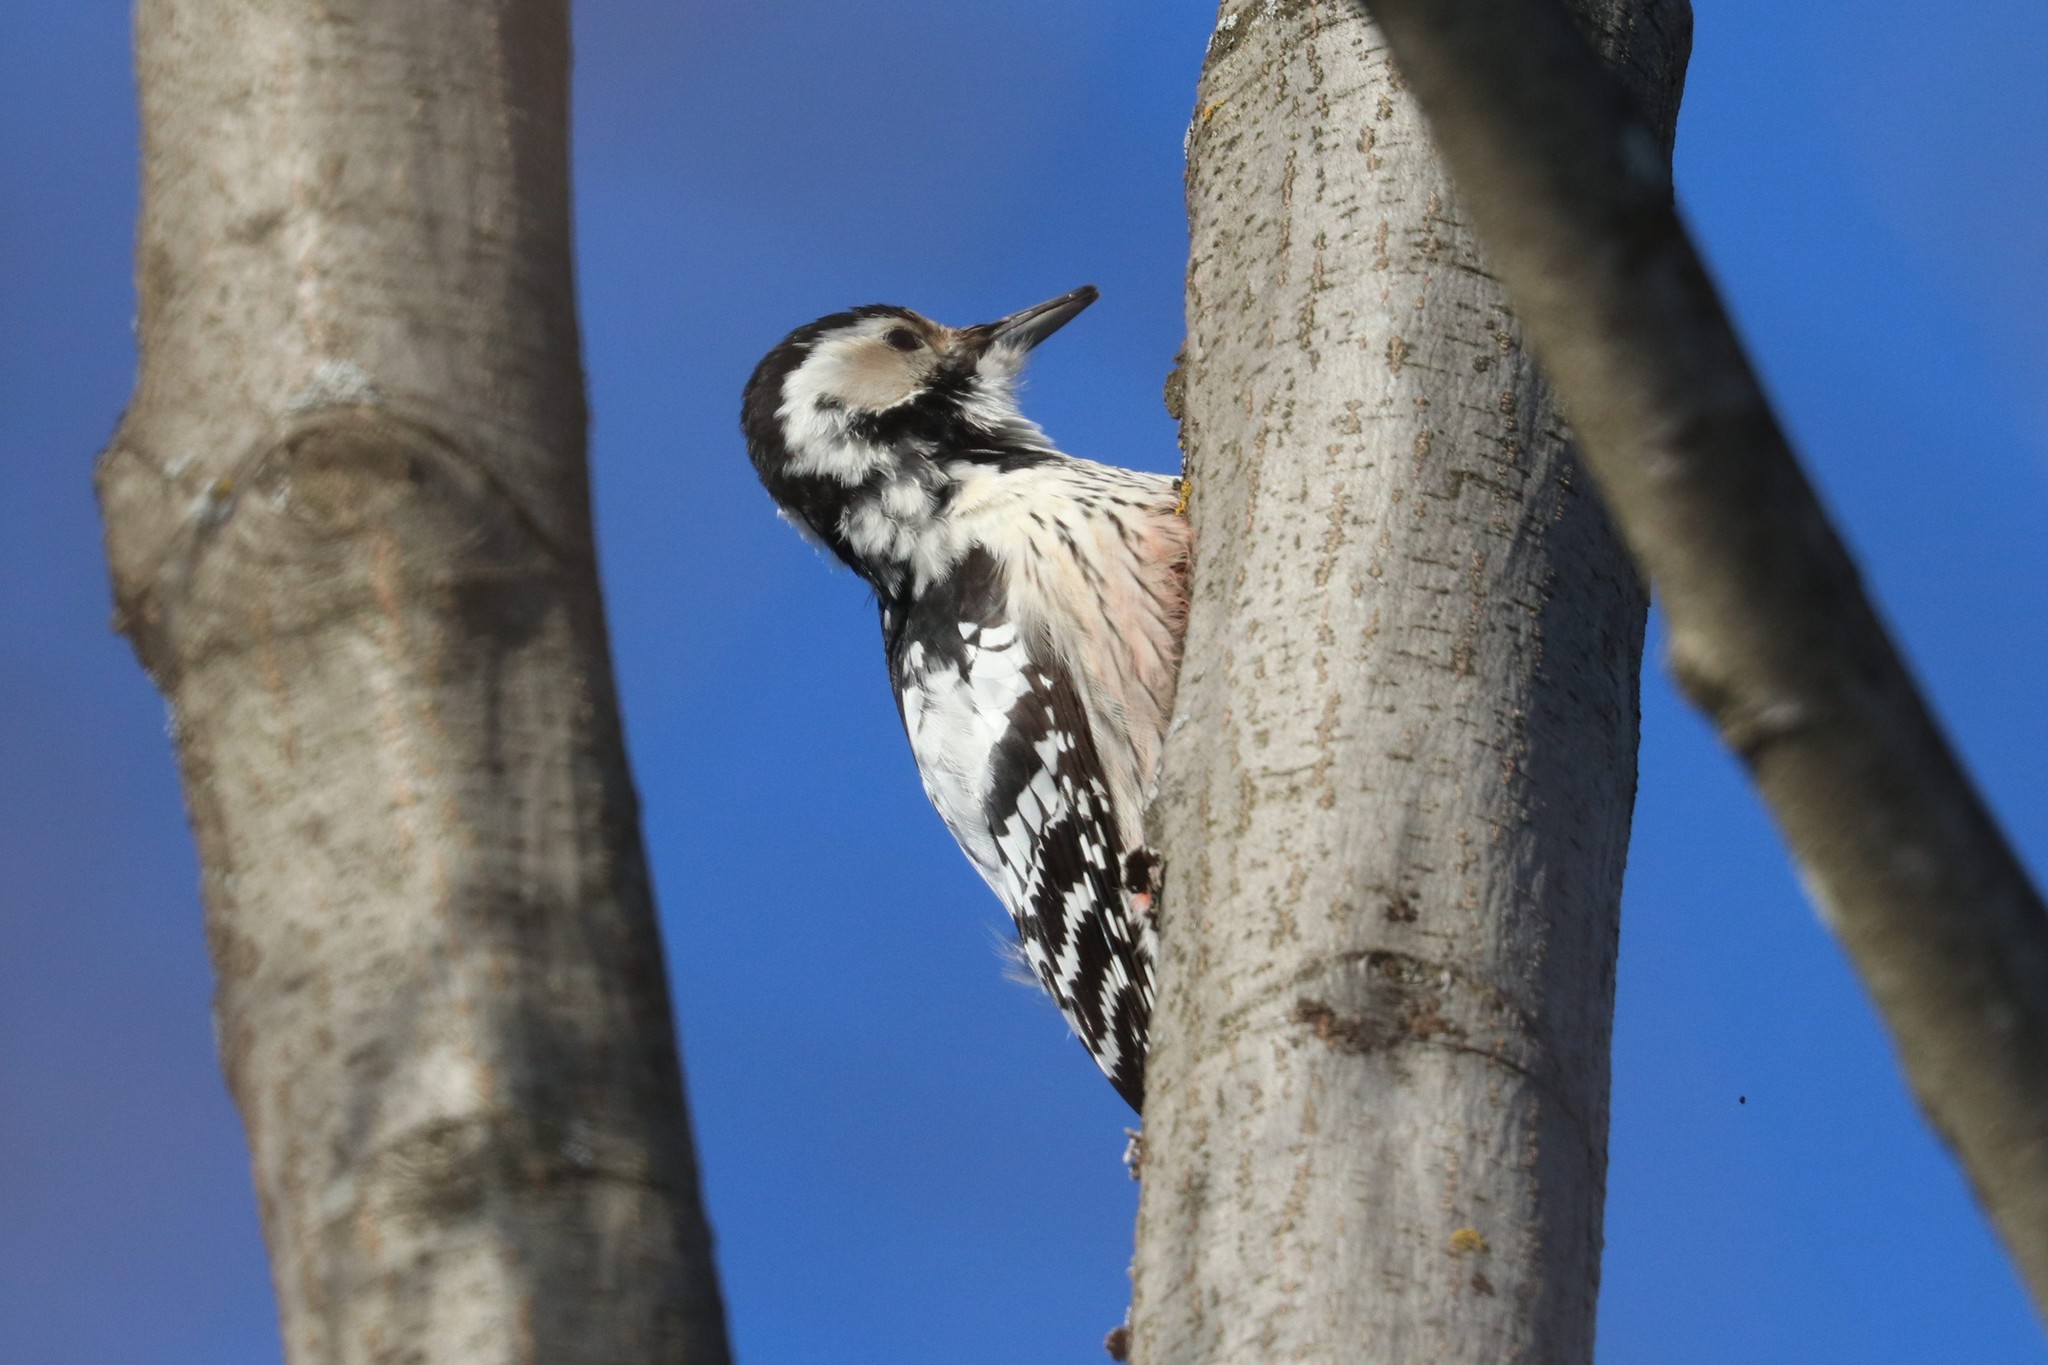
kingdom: Animalia
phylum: Chordata
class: Aves
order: Piciformes
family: Picidae
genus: Dendrocopos
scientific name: Dendrocopos leucotos
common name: White-backed woodpecker
